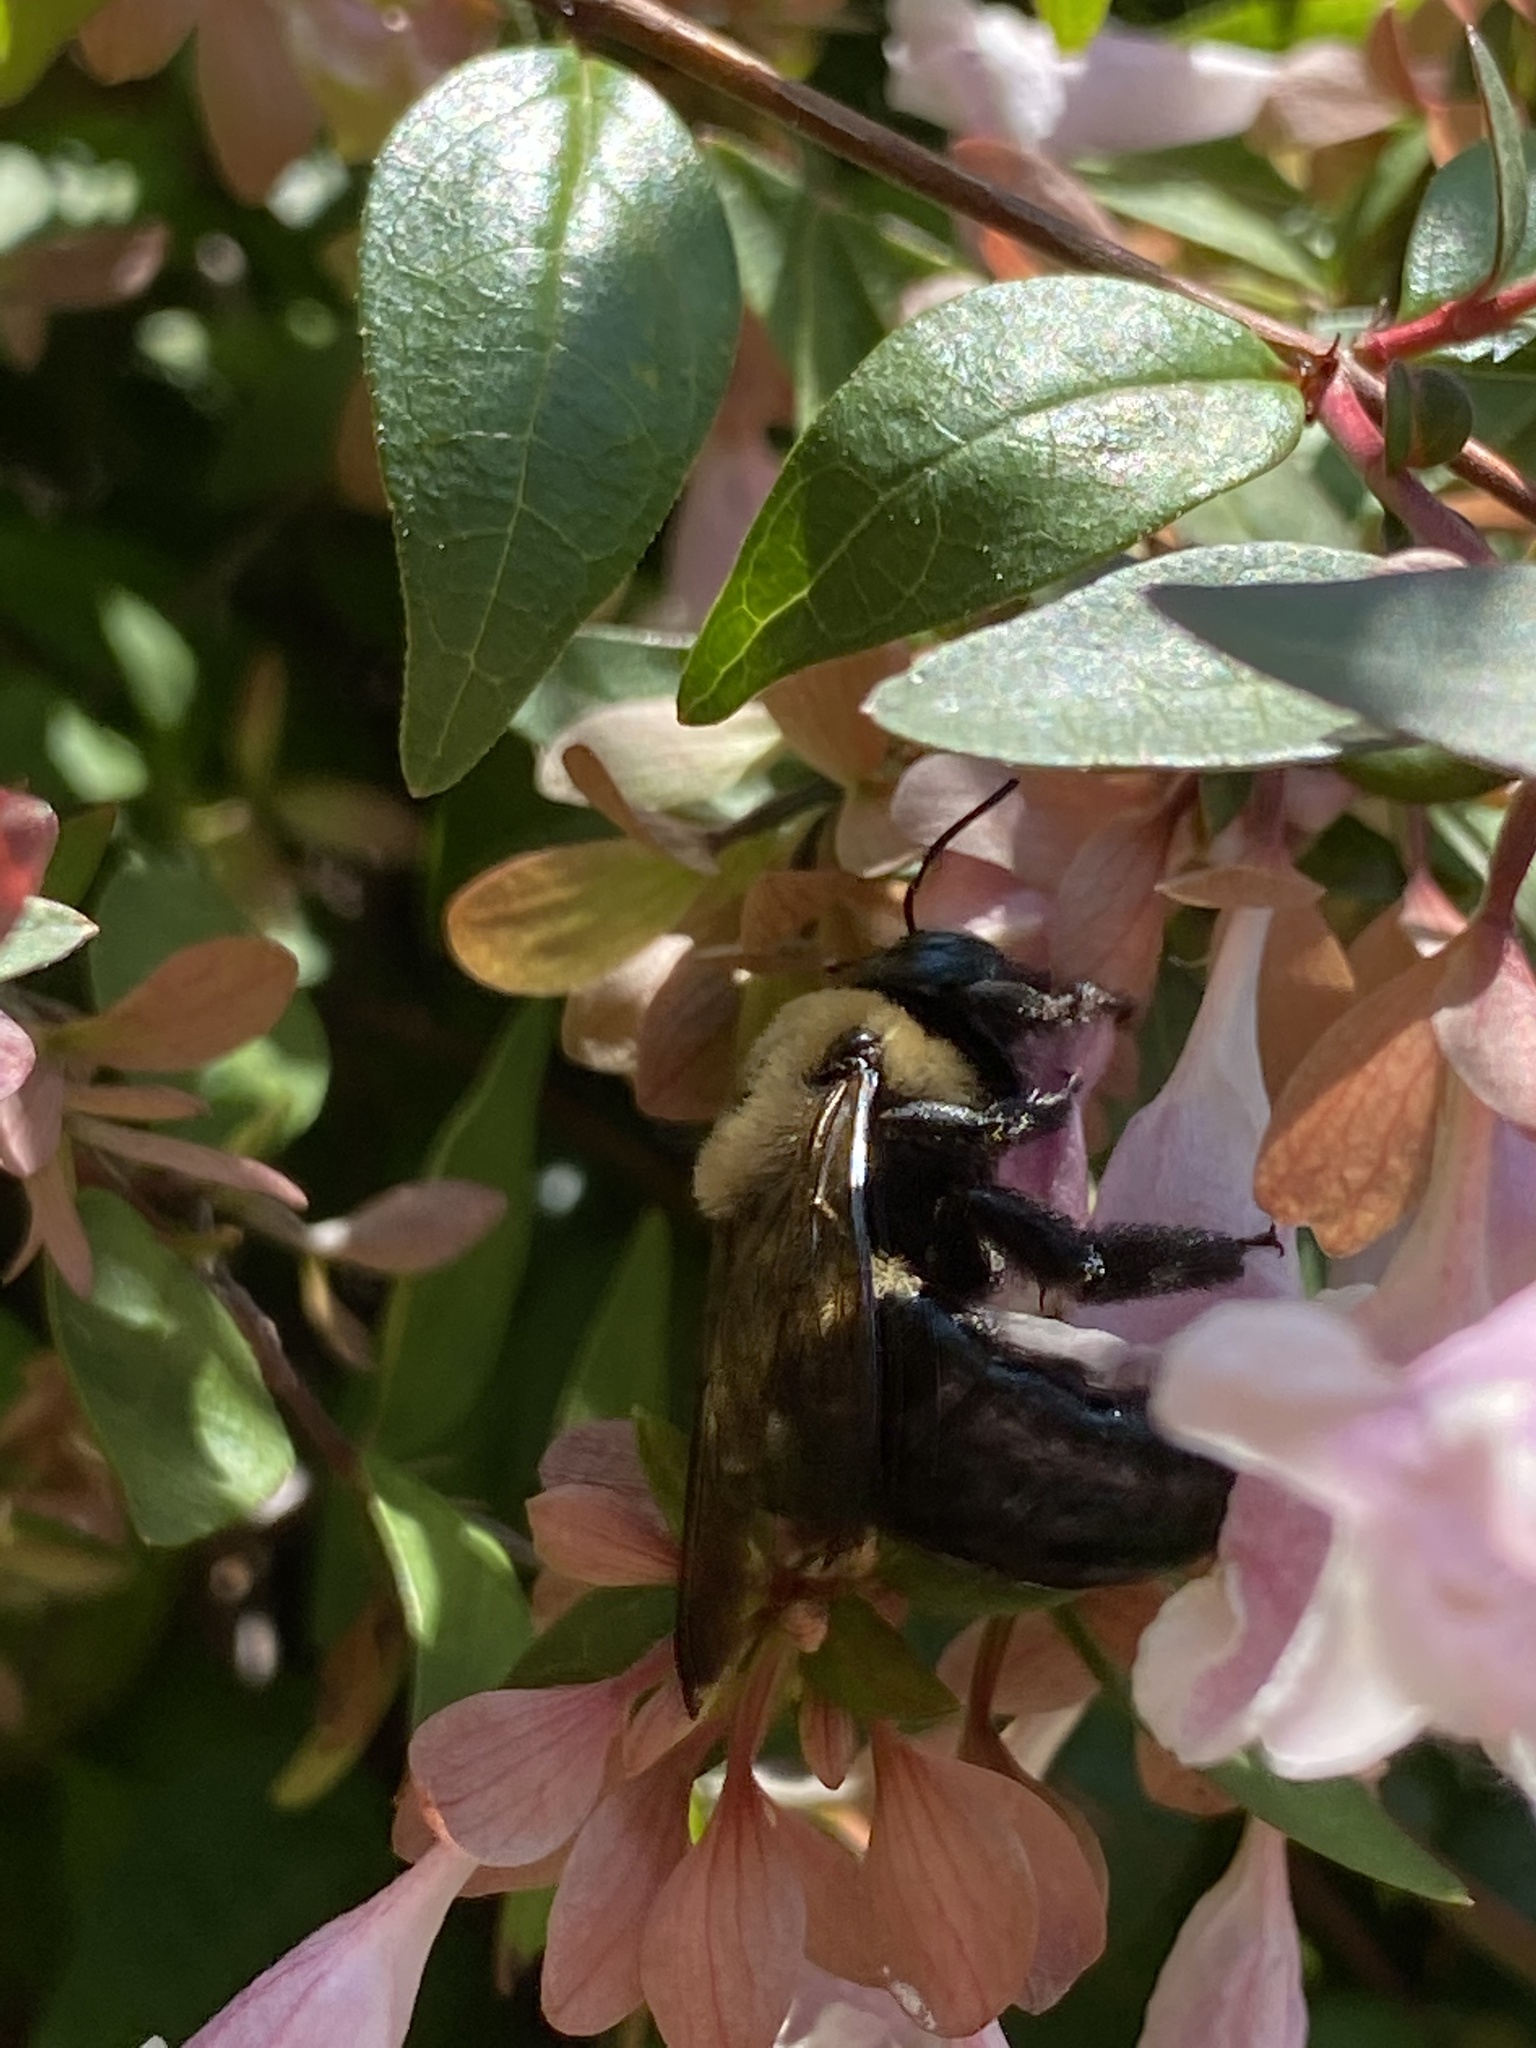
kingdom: Animalia
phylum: Arthropoda
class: Insecta
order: Hymenoptera
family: Apidae
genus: Xylocopa
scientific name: Xylocopa virginica
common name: Carpenter bee
